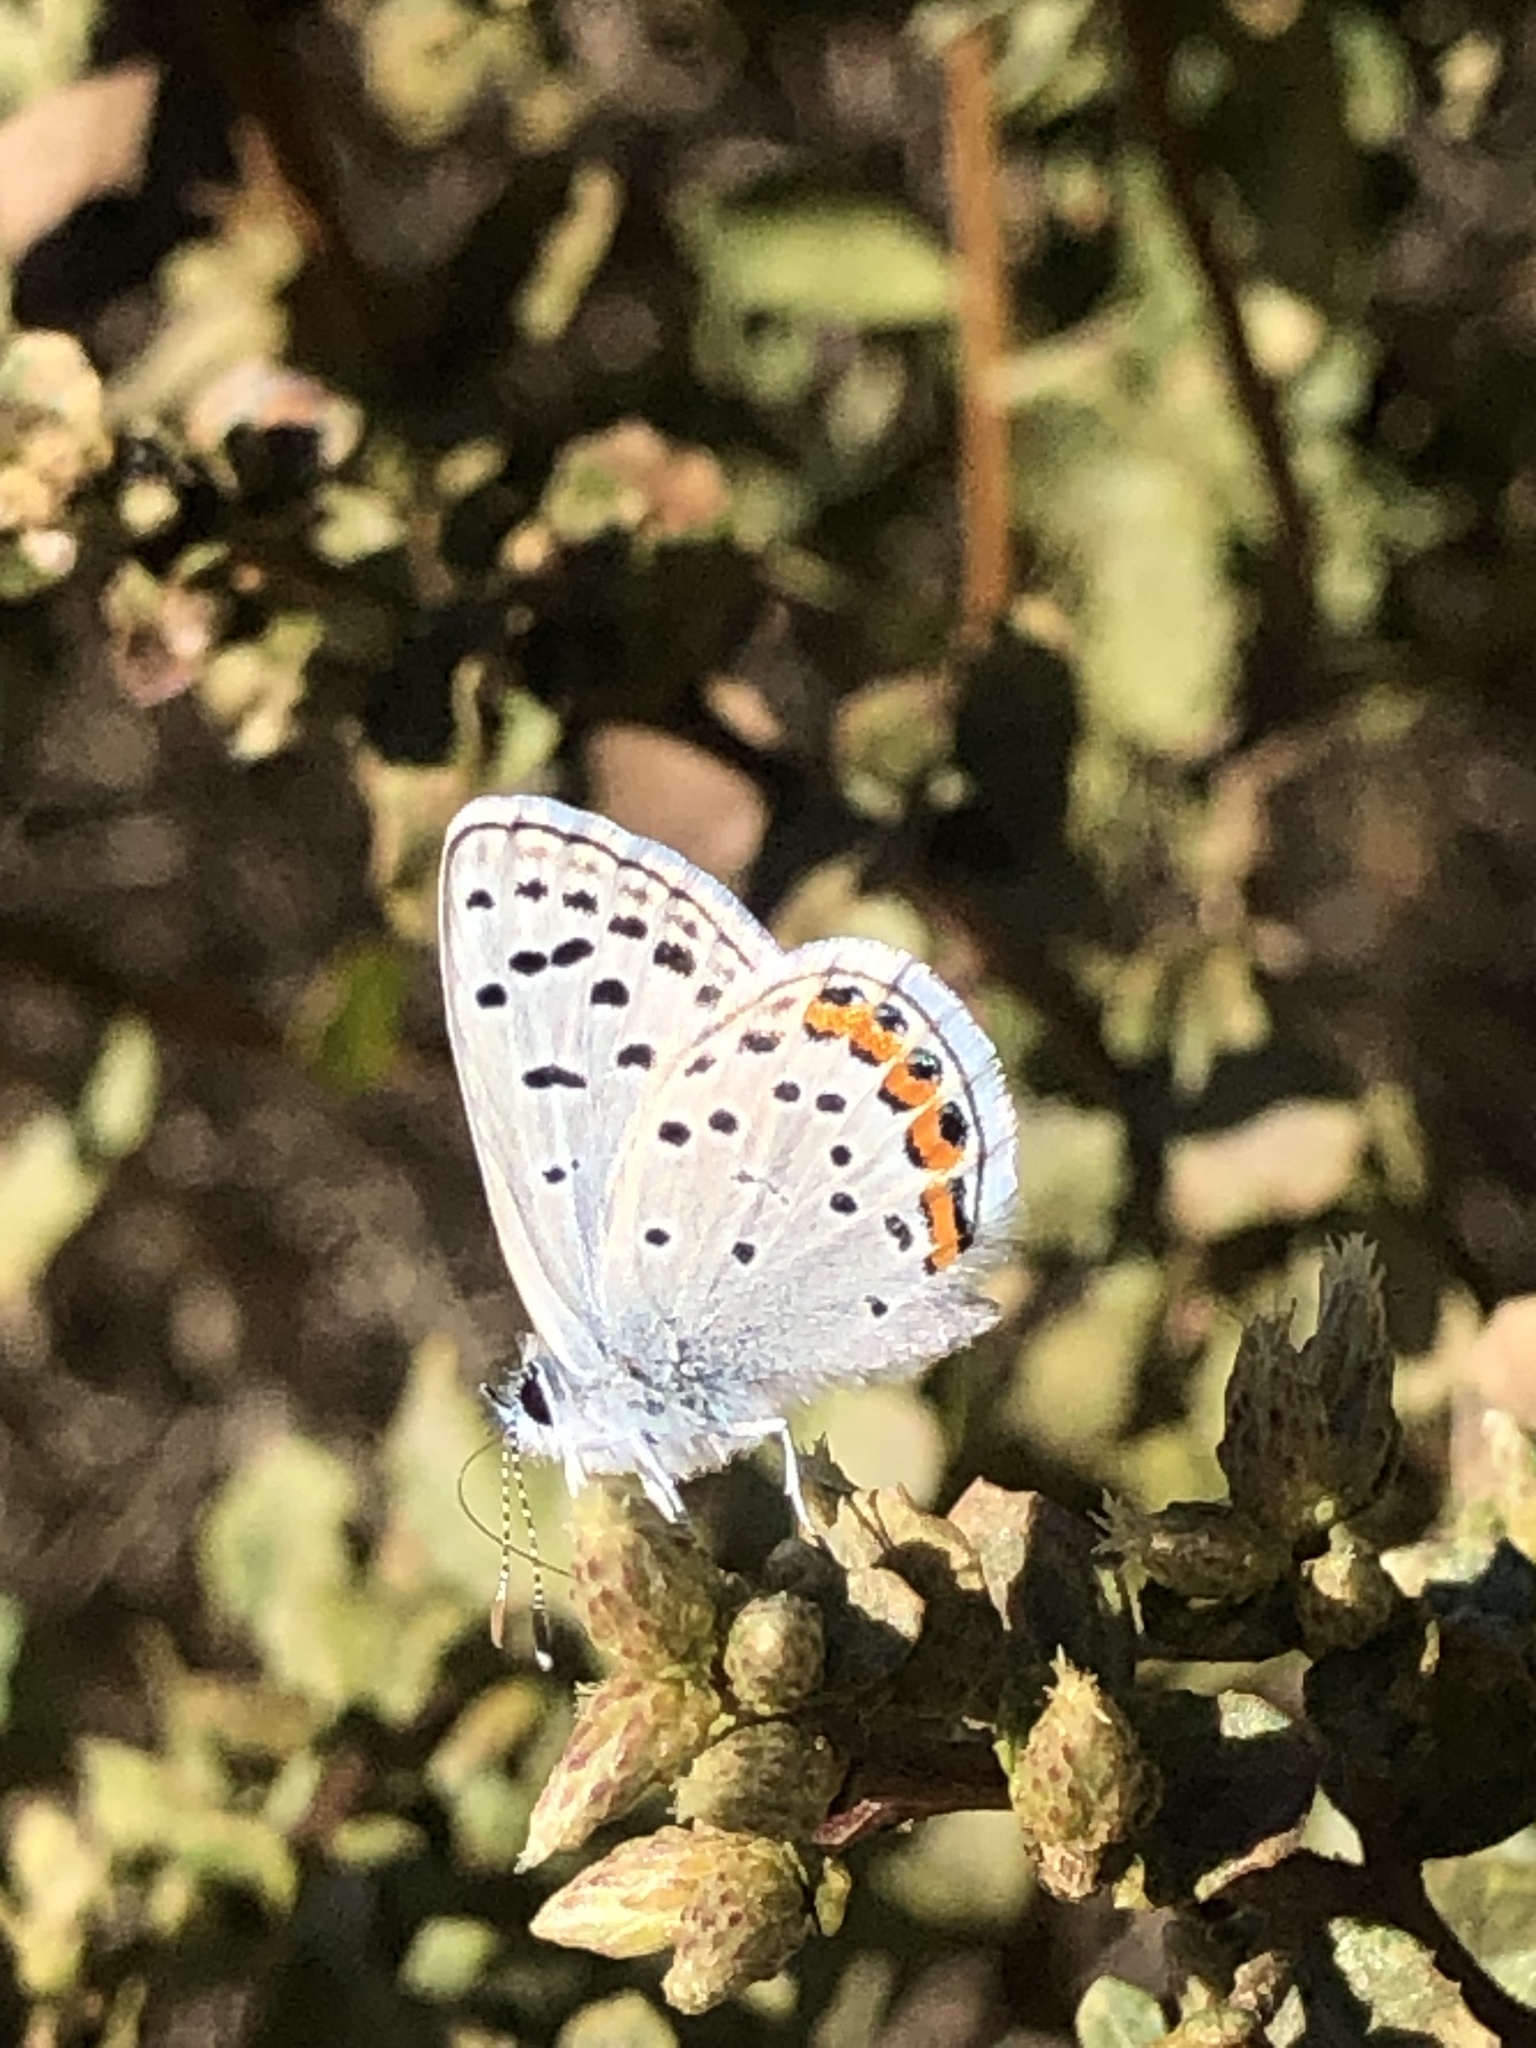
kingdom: Animalia
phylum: Arthropoda
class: Insecta
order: Lepidoptera
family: Lycaenidae
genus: Icaricia
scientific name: Icaricia acmon
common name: Acmon blue
